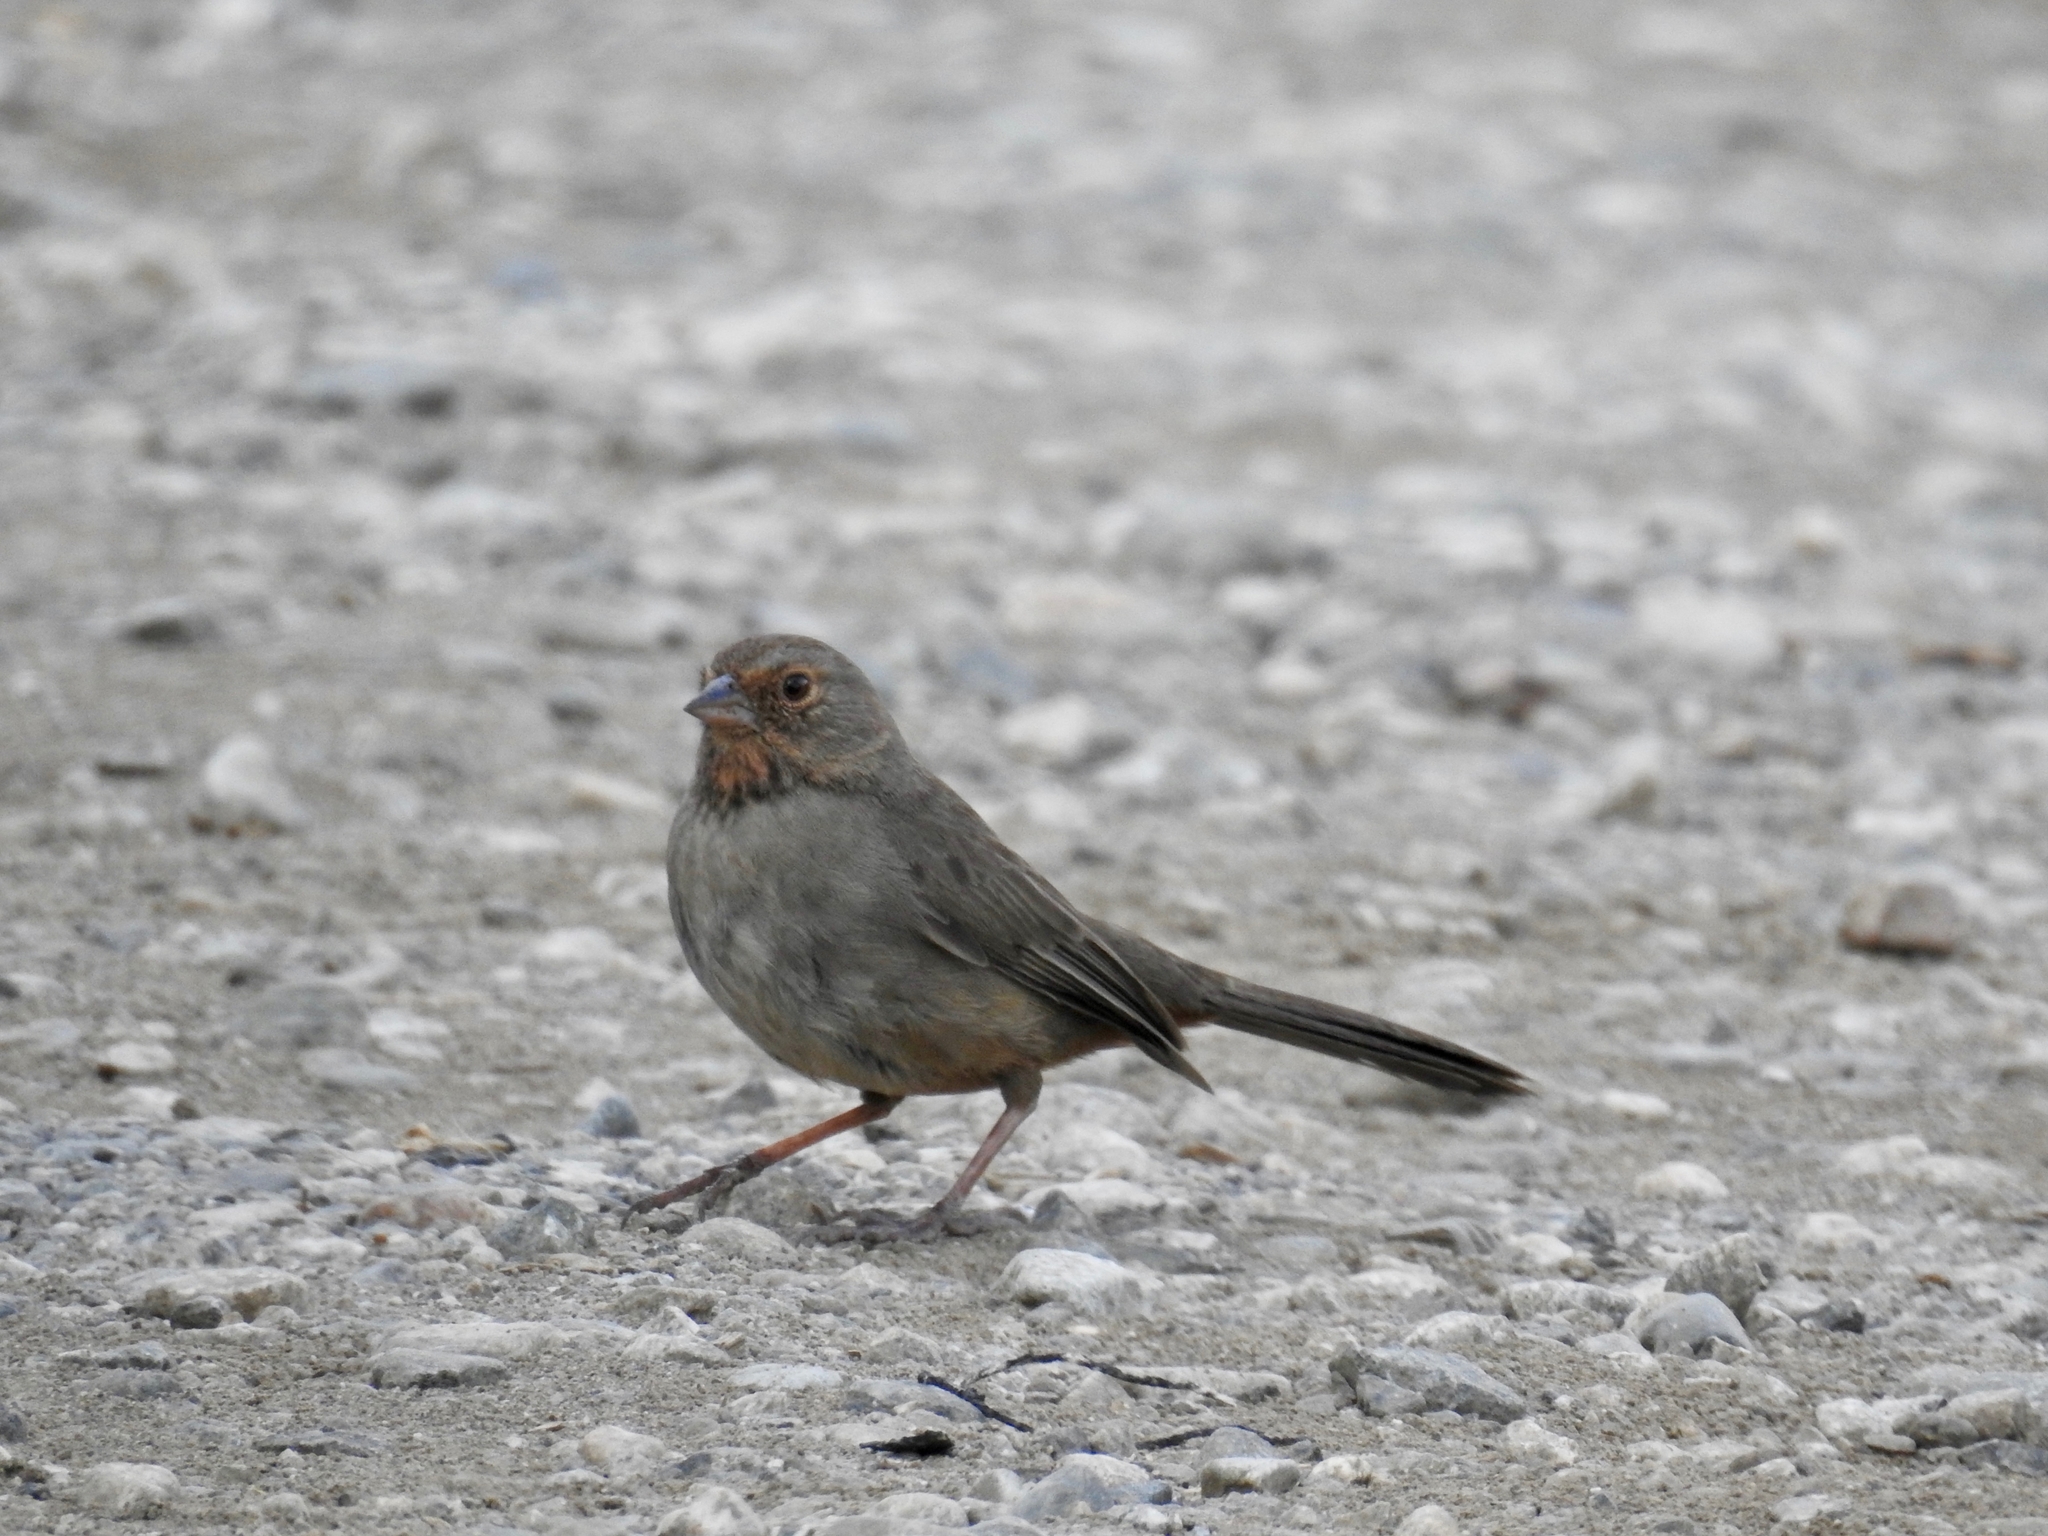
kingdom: Animalia
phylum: Chordata
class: Aves
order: Passeriformes
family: Passerellidae
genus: Melozone
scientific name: Melozone crissalis
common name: California towhee
